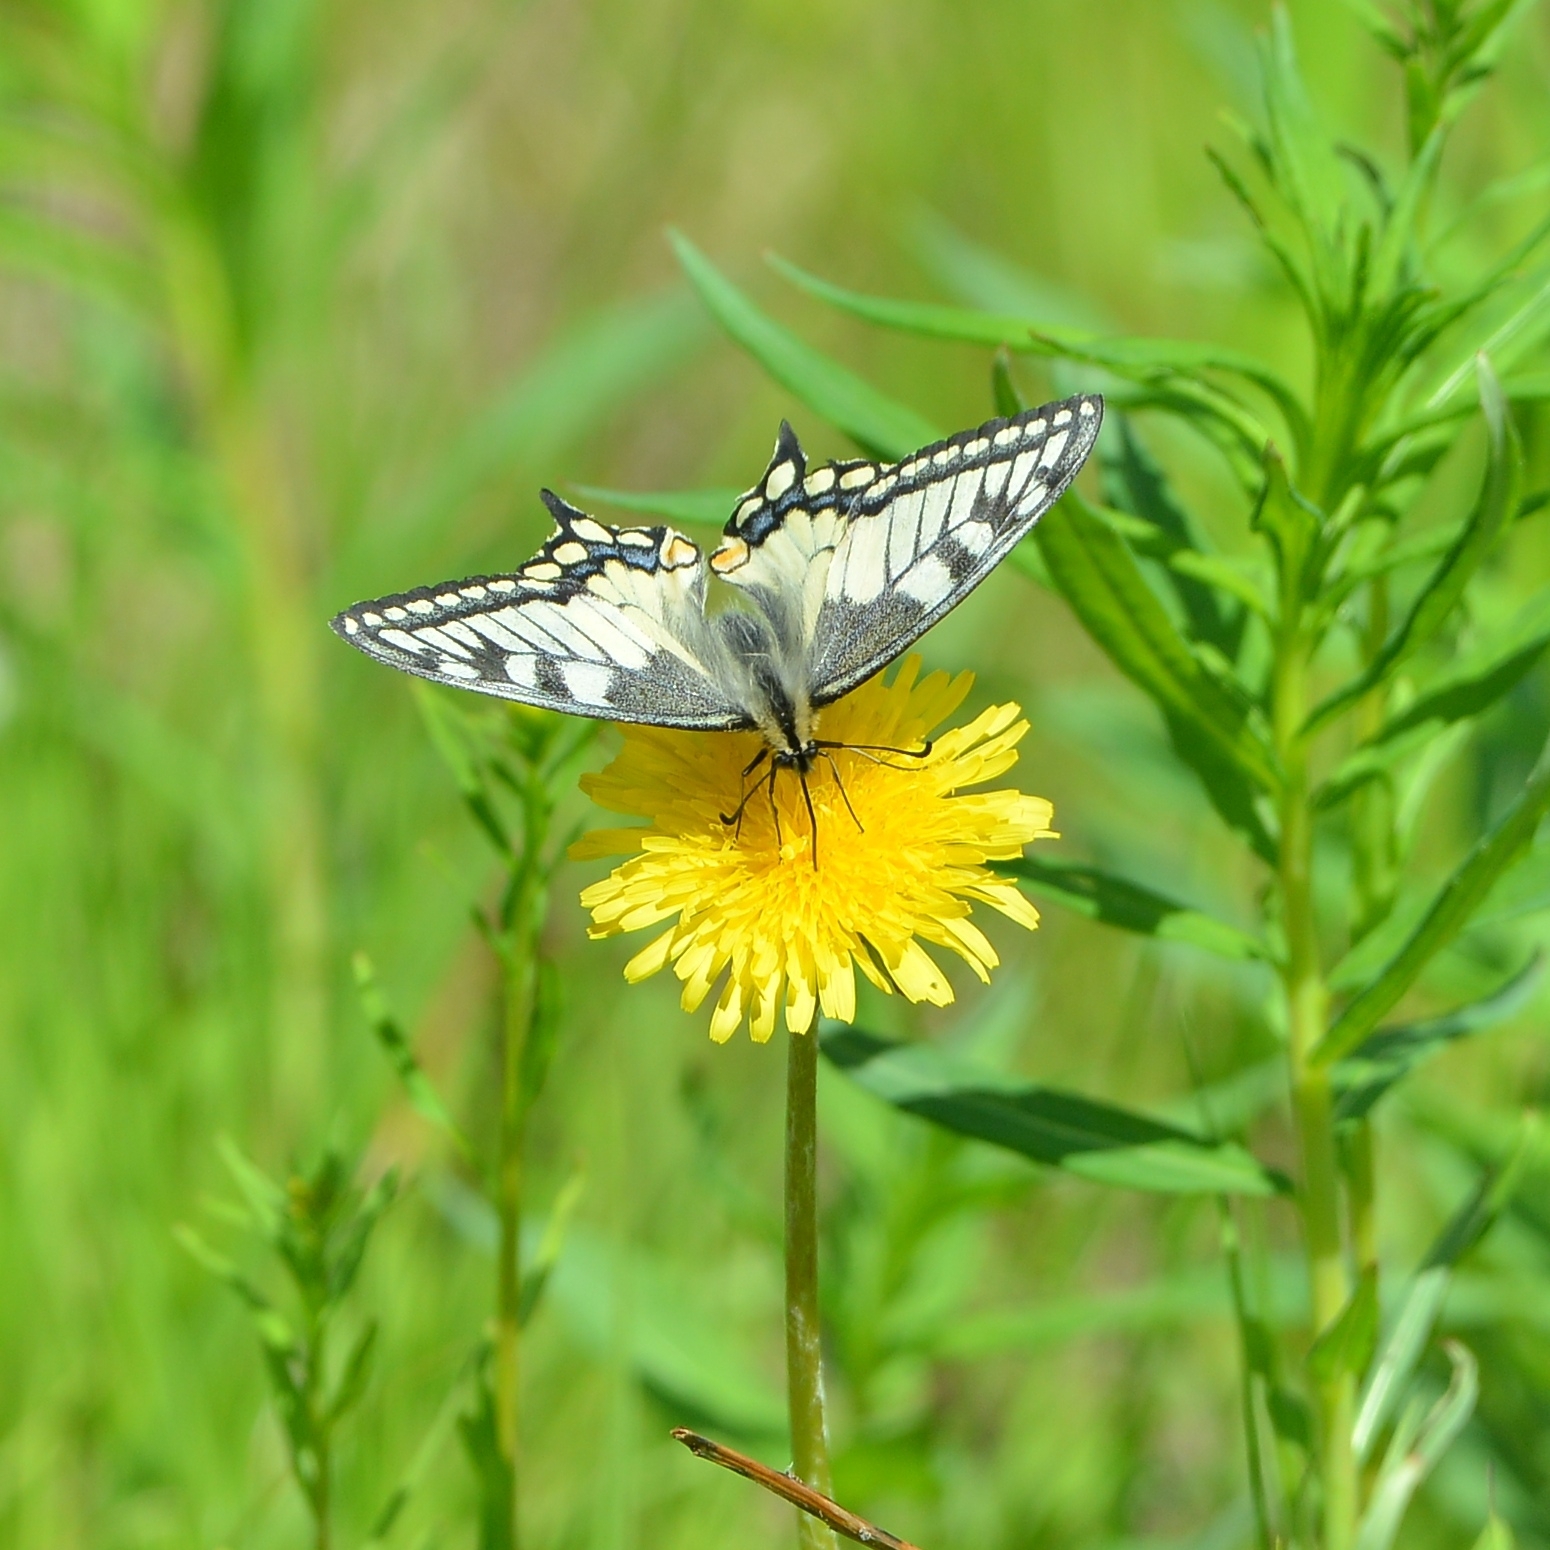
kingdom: Animalia
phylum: Arthropoda
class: Insecta
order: Lepidoptera
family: Papilionidae
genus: Papilio
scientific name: Papilio machaon
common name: Swallowtail
